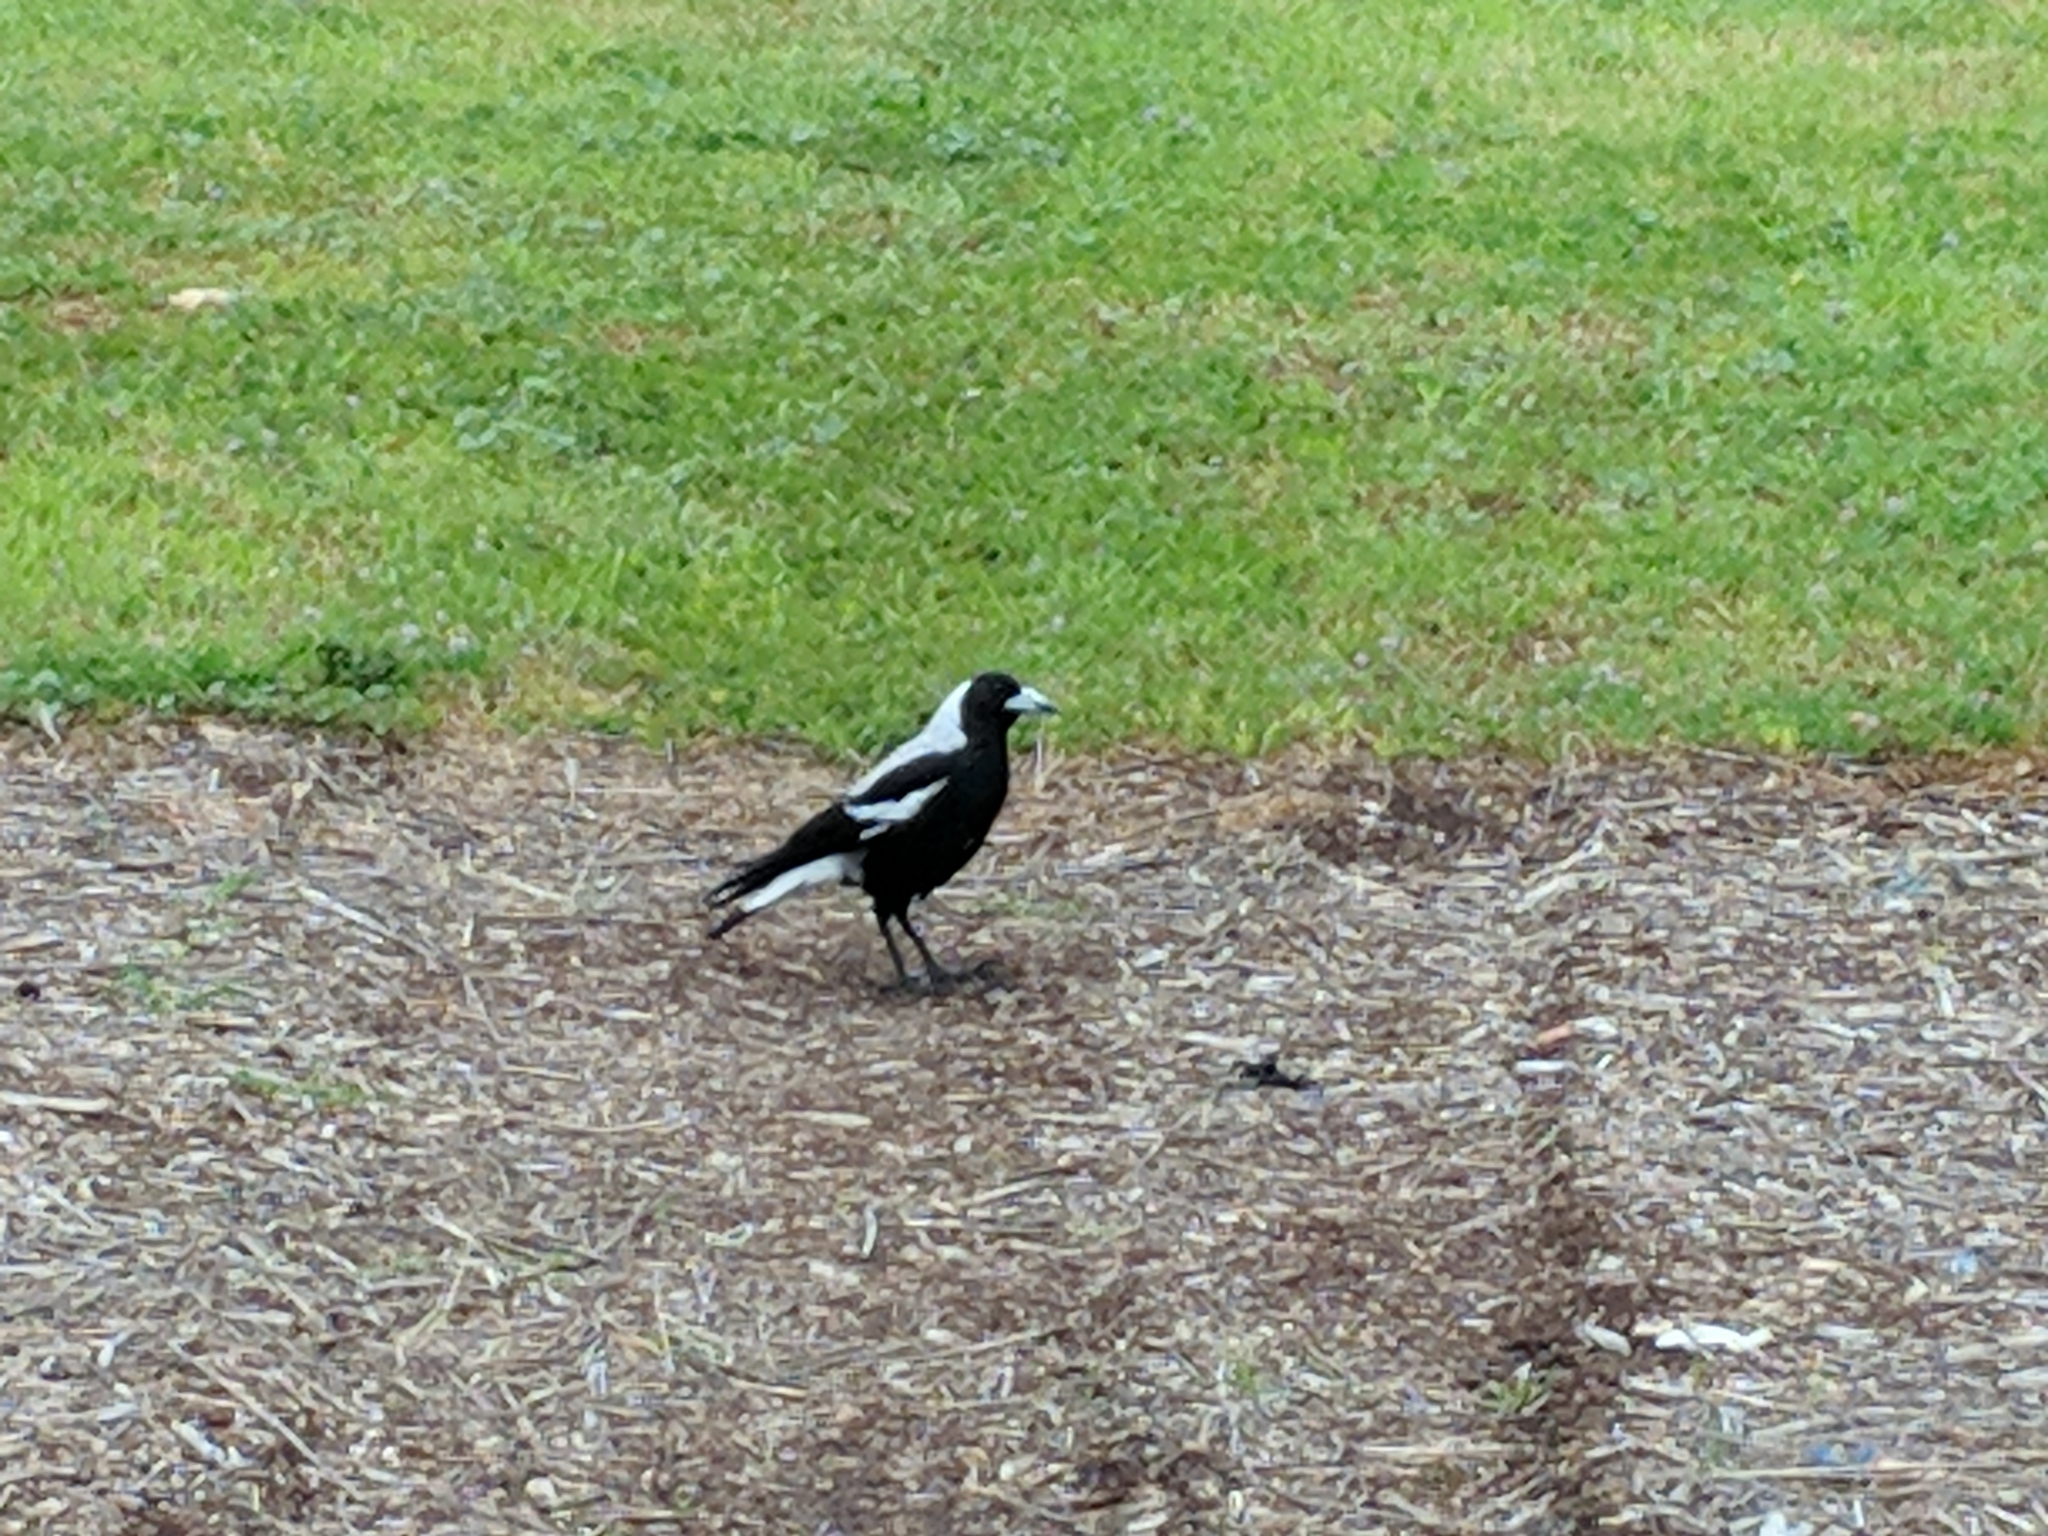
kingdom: Animalia
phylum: Chordata
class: Aves
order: Passeriformes
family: Cracticidae
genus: Gymnorhina
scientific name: Gymnorhina tibicen
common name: Australian magpie
